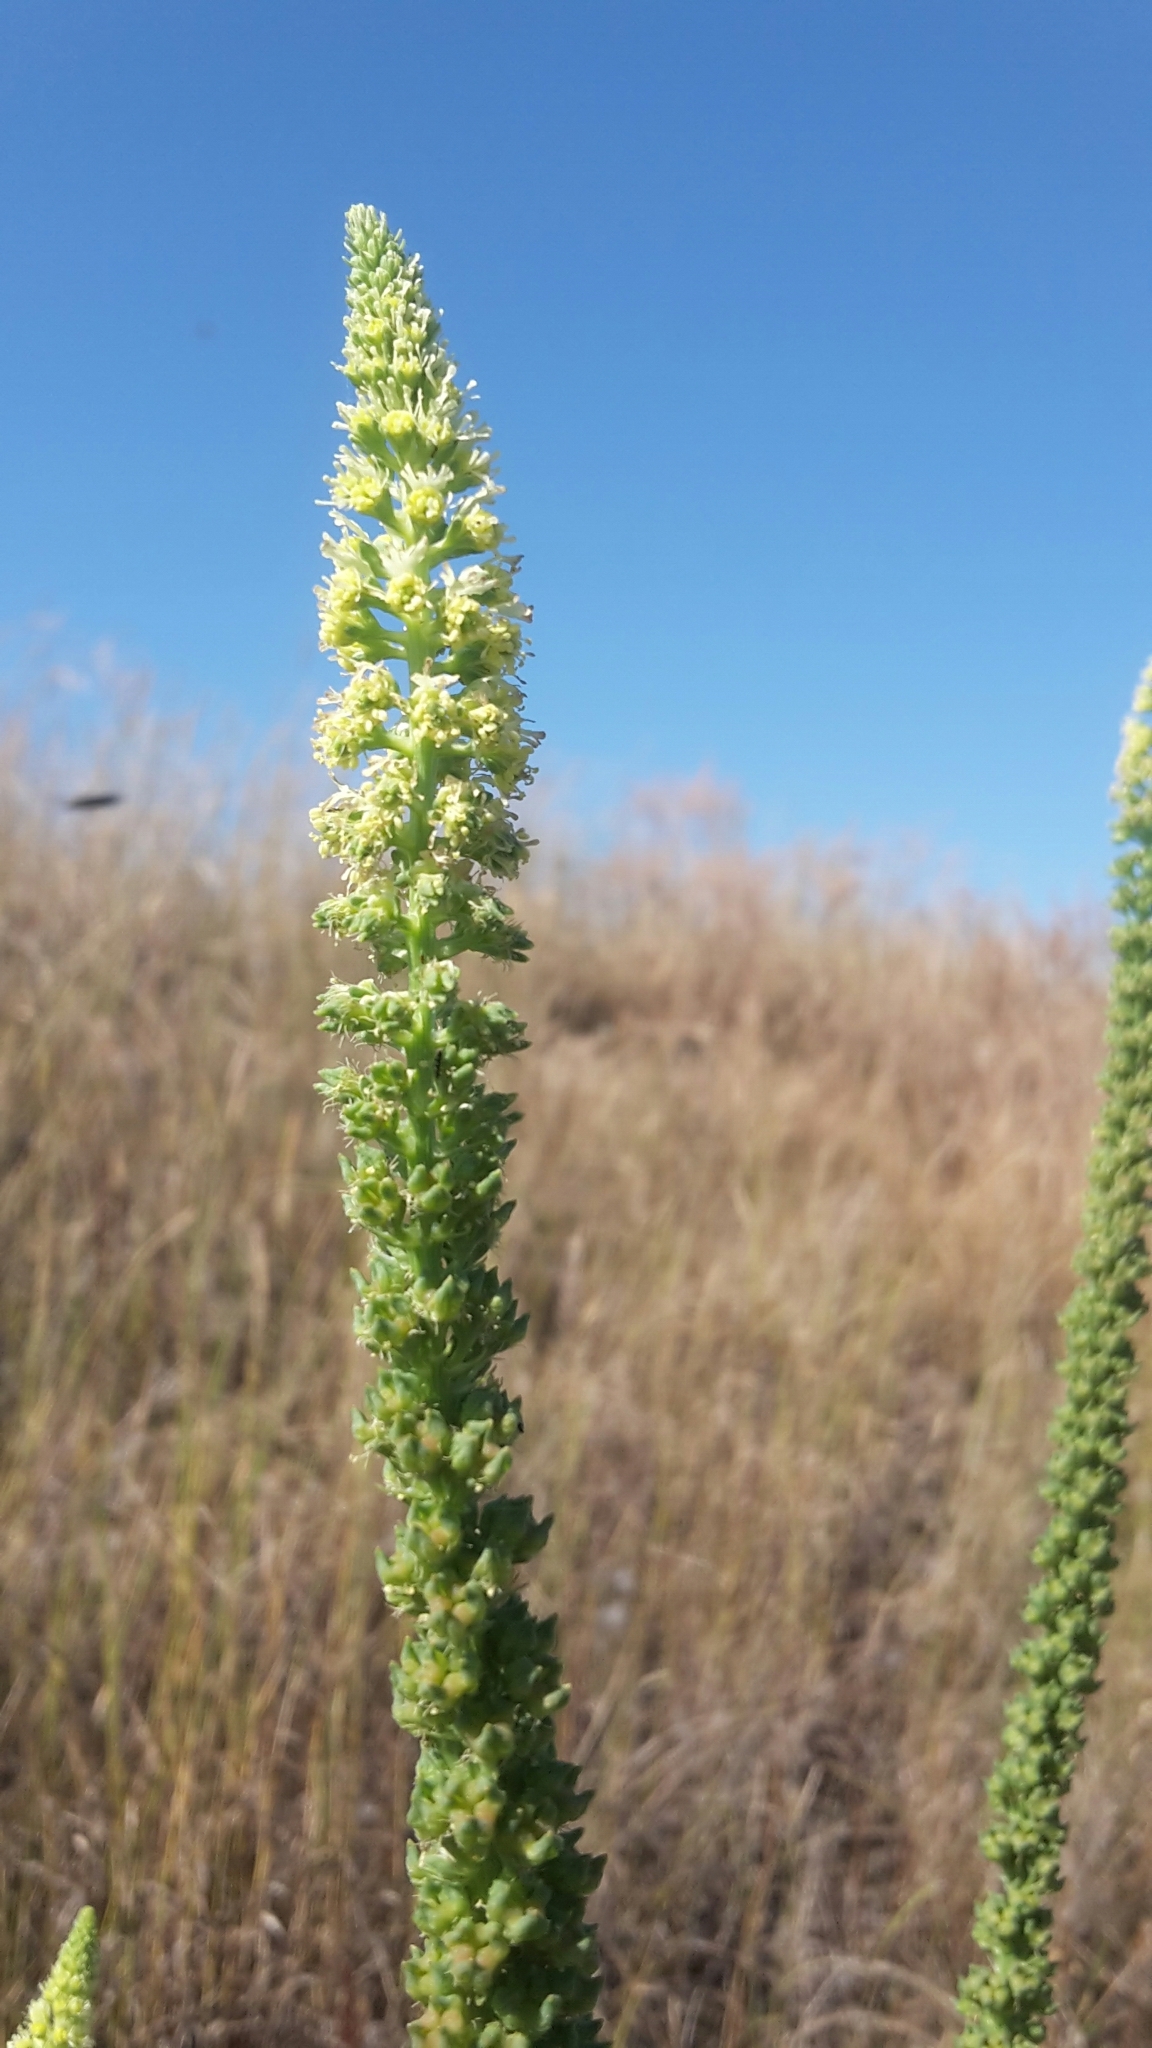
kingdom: Plantae
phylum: Tracheophyta
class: Magnoliopsida
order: Brassicales
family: Resedaceae
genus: Reseda
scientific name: Reseda luteola
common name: Weld
